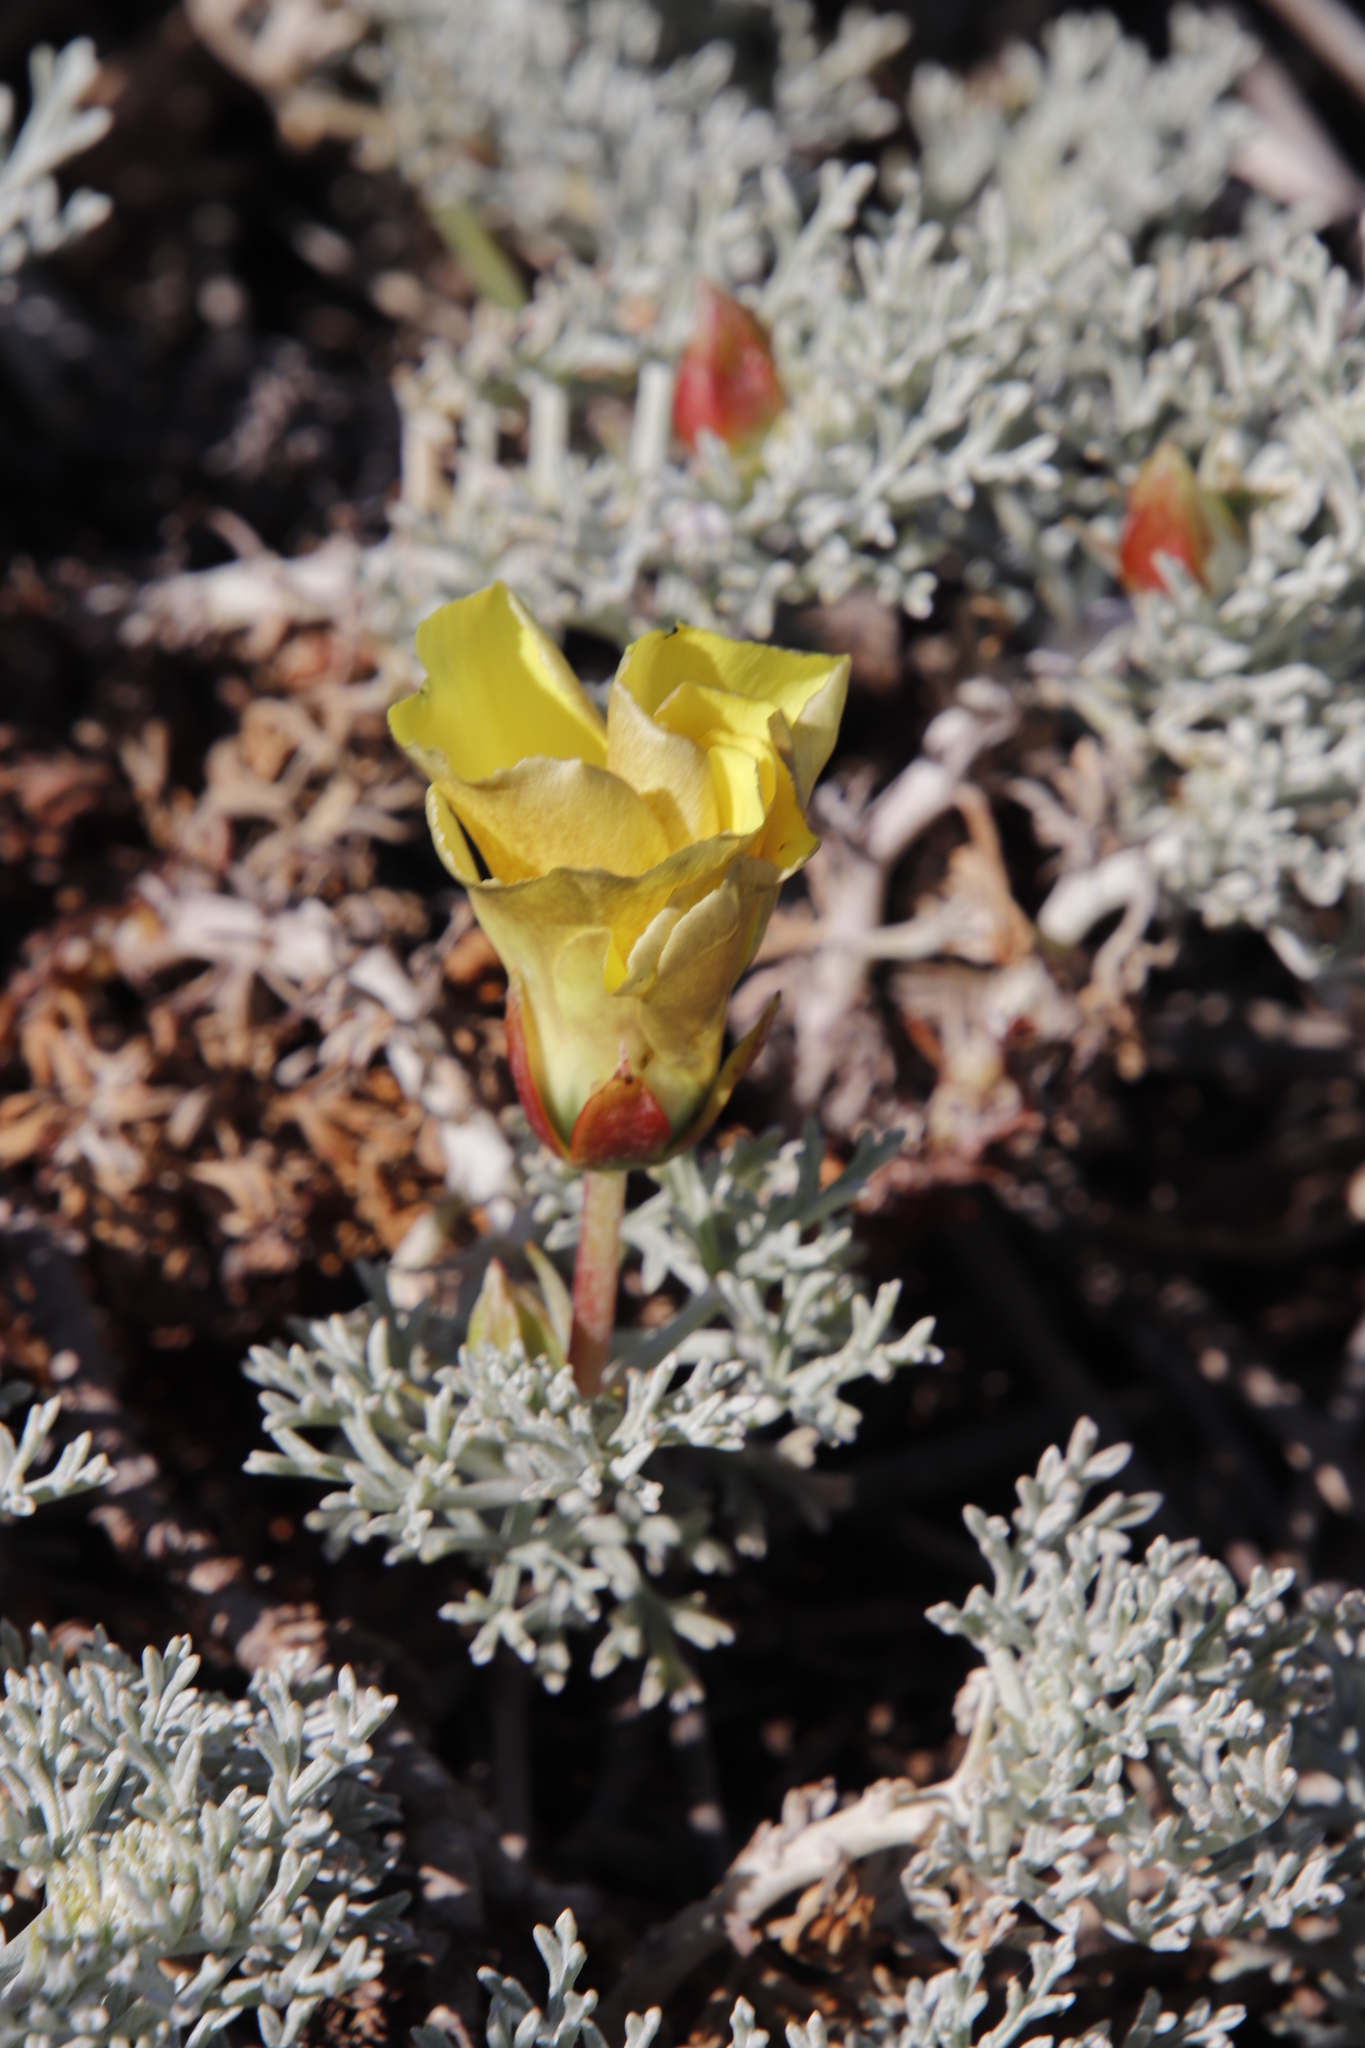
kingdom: Plantae
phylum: Tracheophyta
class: Magnoliopsida
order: Malvales
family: Neuradaceae
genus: Grielum
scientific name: Grielum grandiflorum
